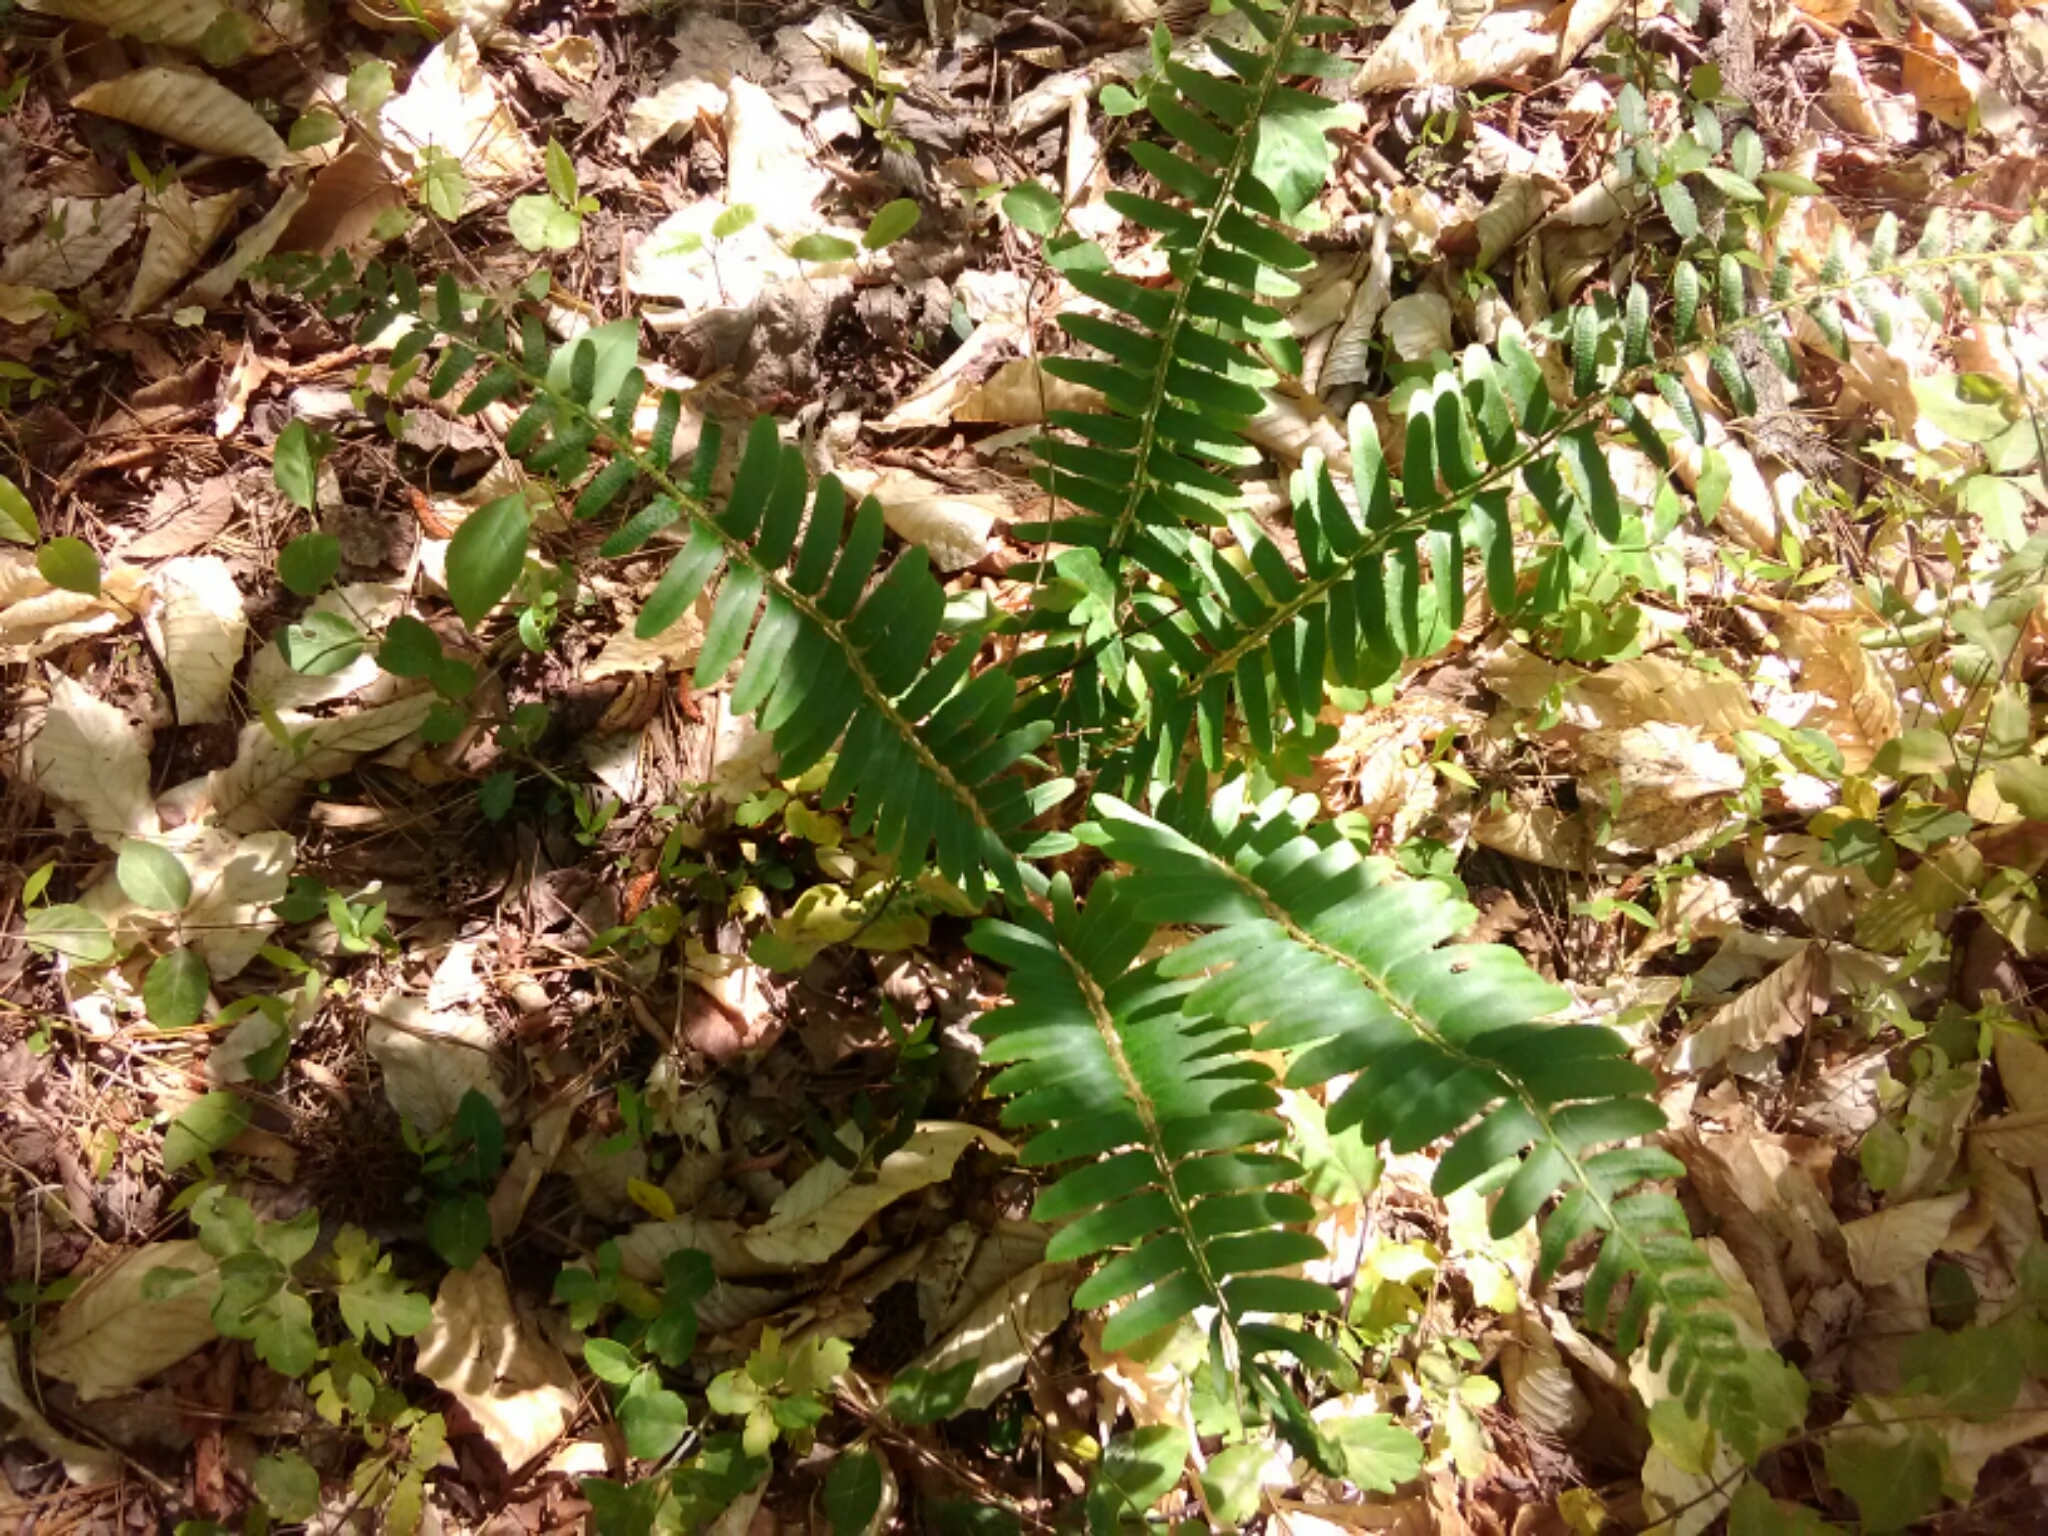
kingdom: Plantae
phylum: Tracheophyta
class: Polypodiopsida
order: Polypodiales
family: Dryopteridaceae
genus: Polystichum
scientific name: Polystichum acrostichoides
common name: Christmas fern
